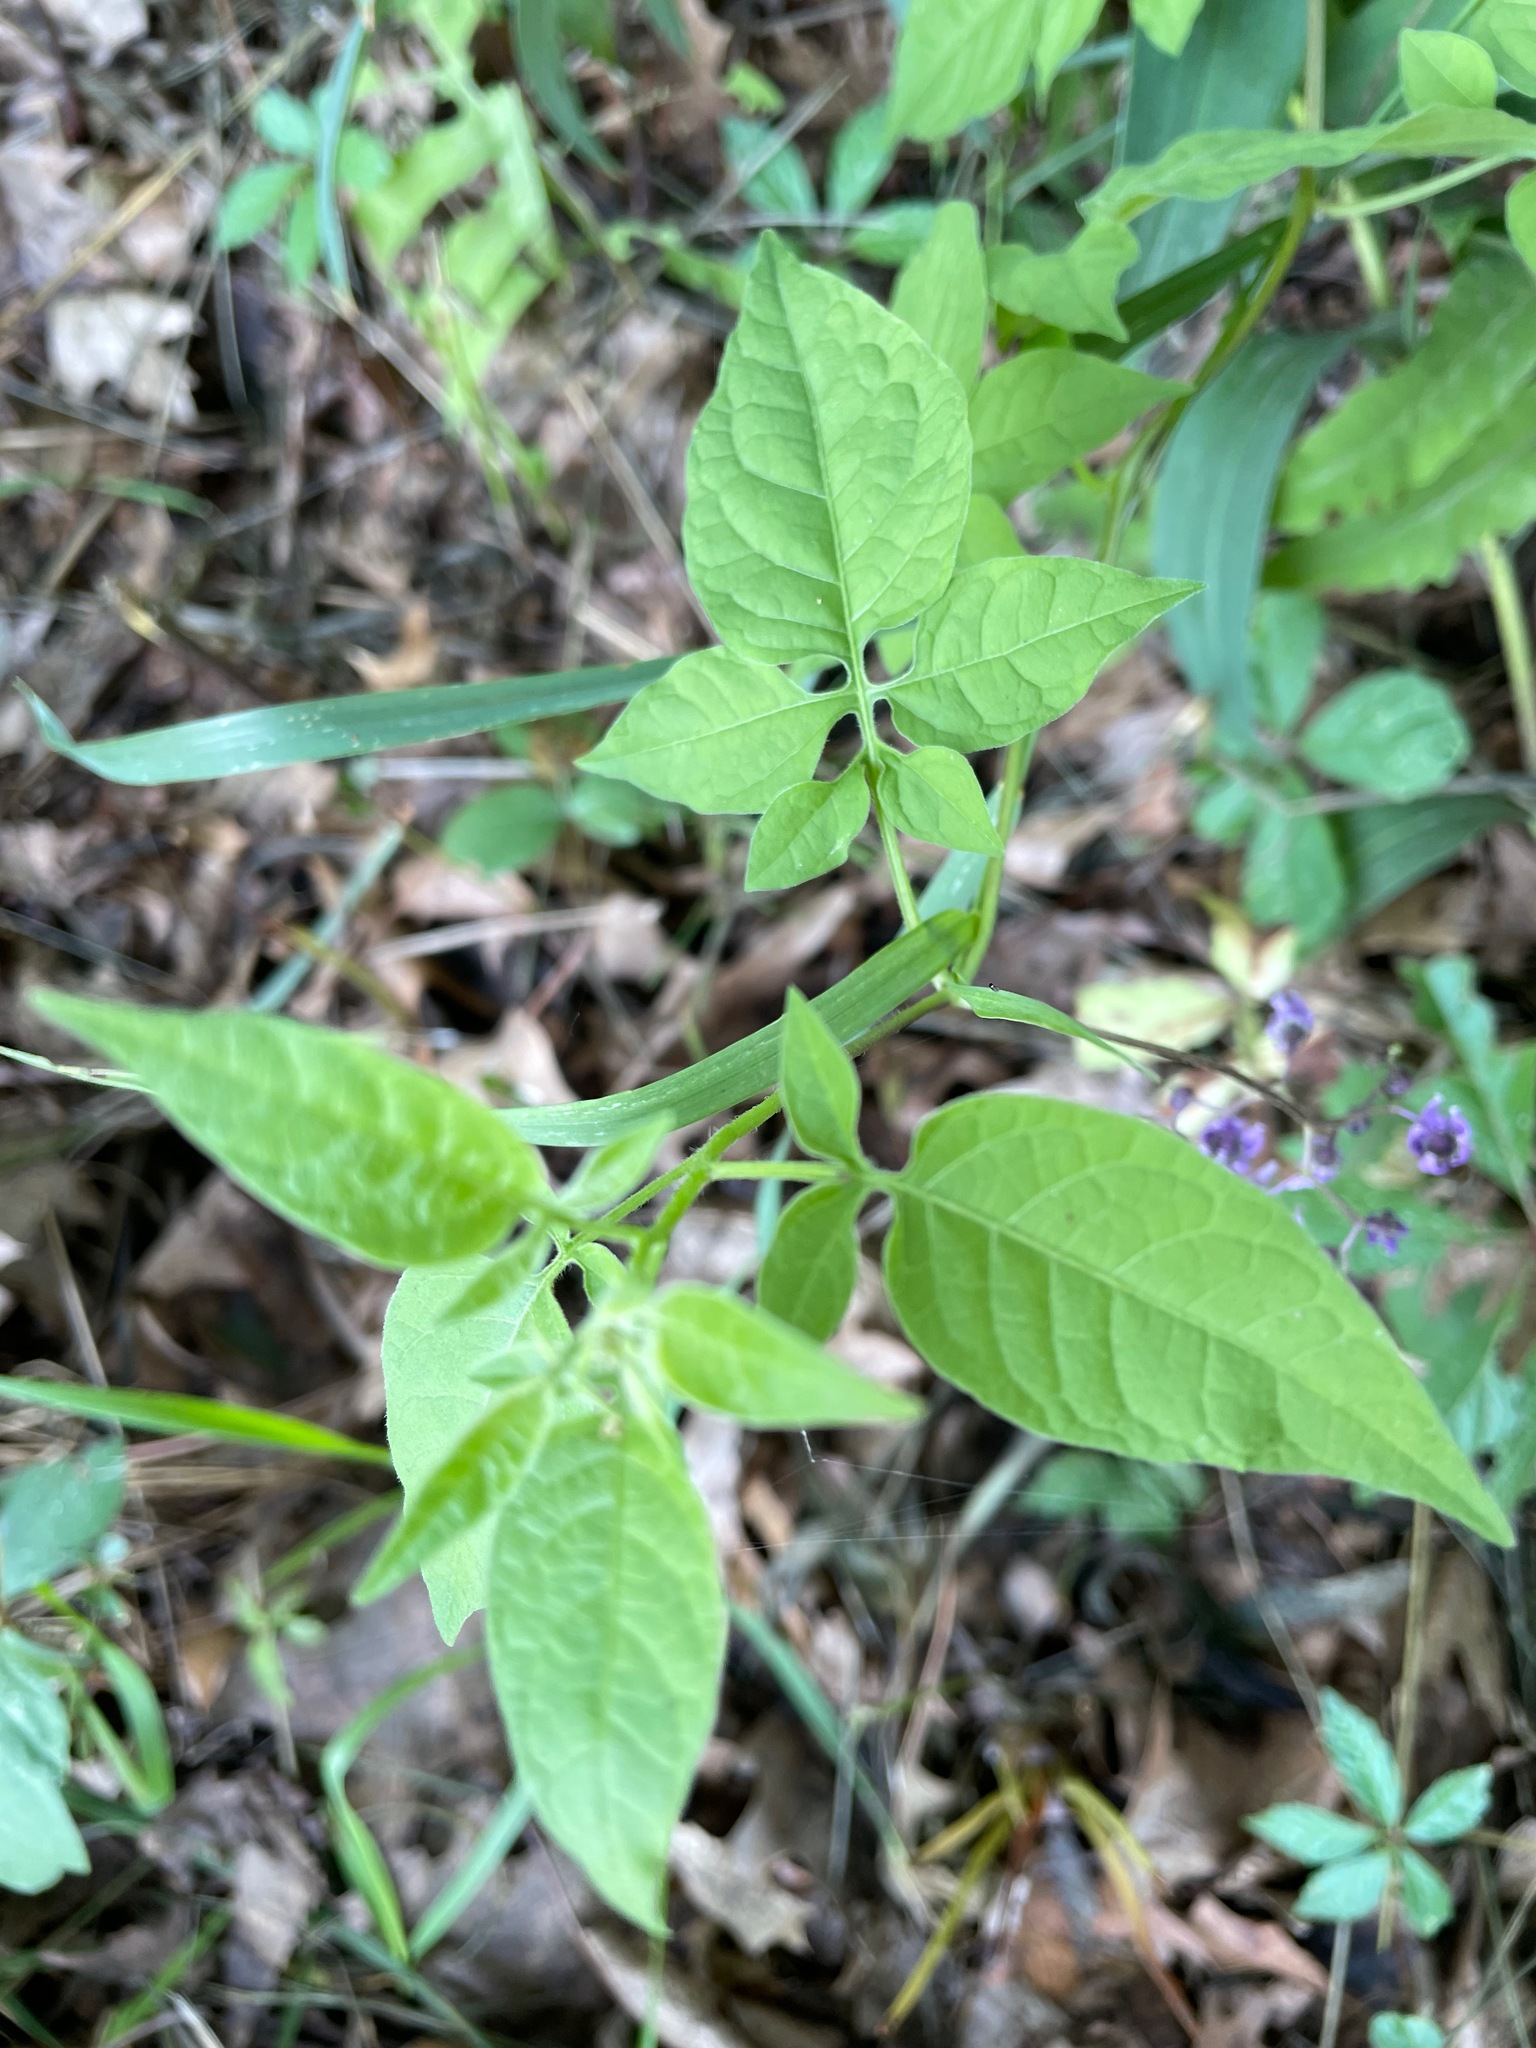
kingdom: Plantae
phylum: Tracheophyta
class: Magnoliopsida
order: Solanales
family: Solanaceae
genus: Solanum
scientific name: Solanum dulcamara
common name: Climbing nightshade
